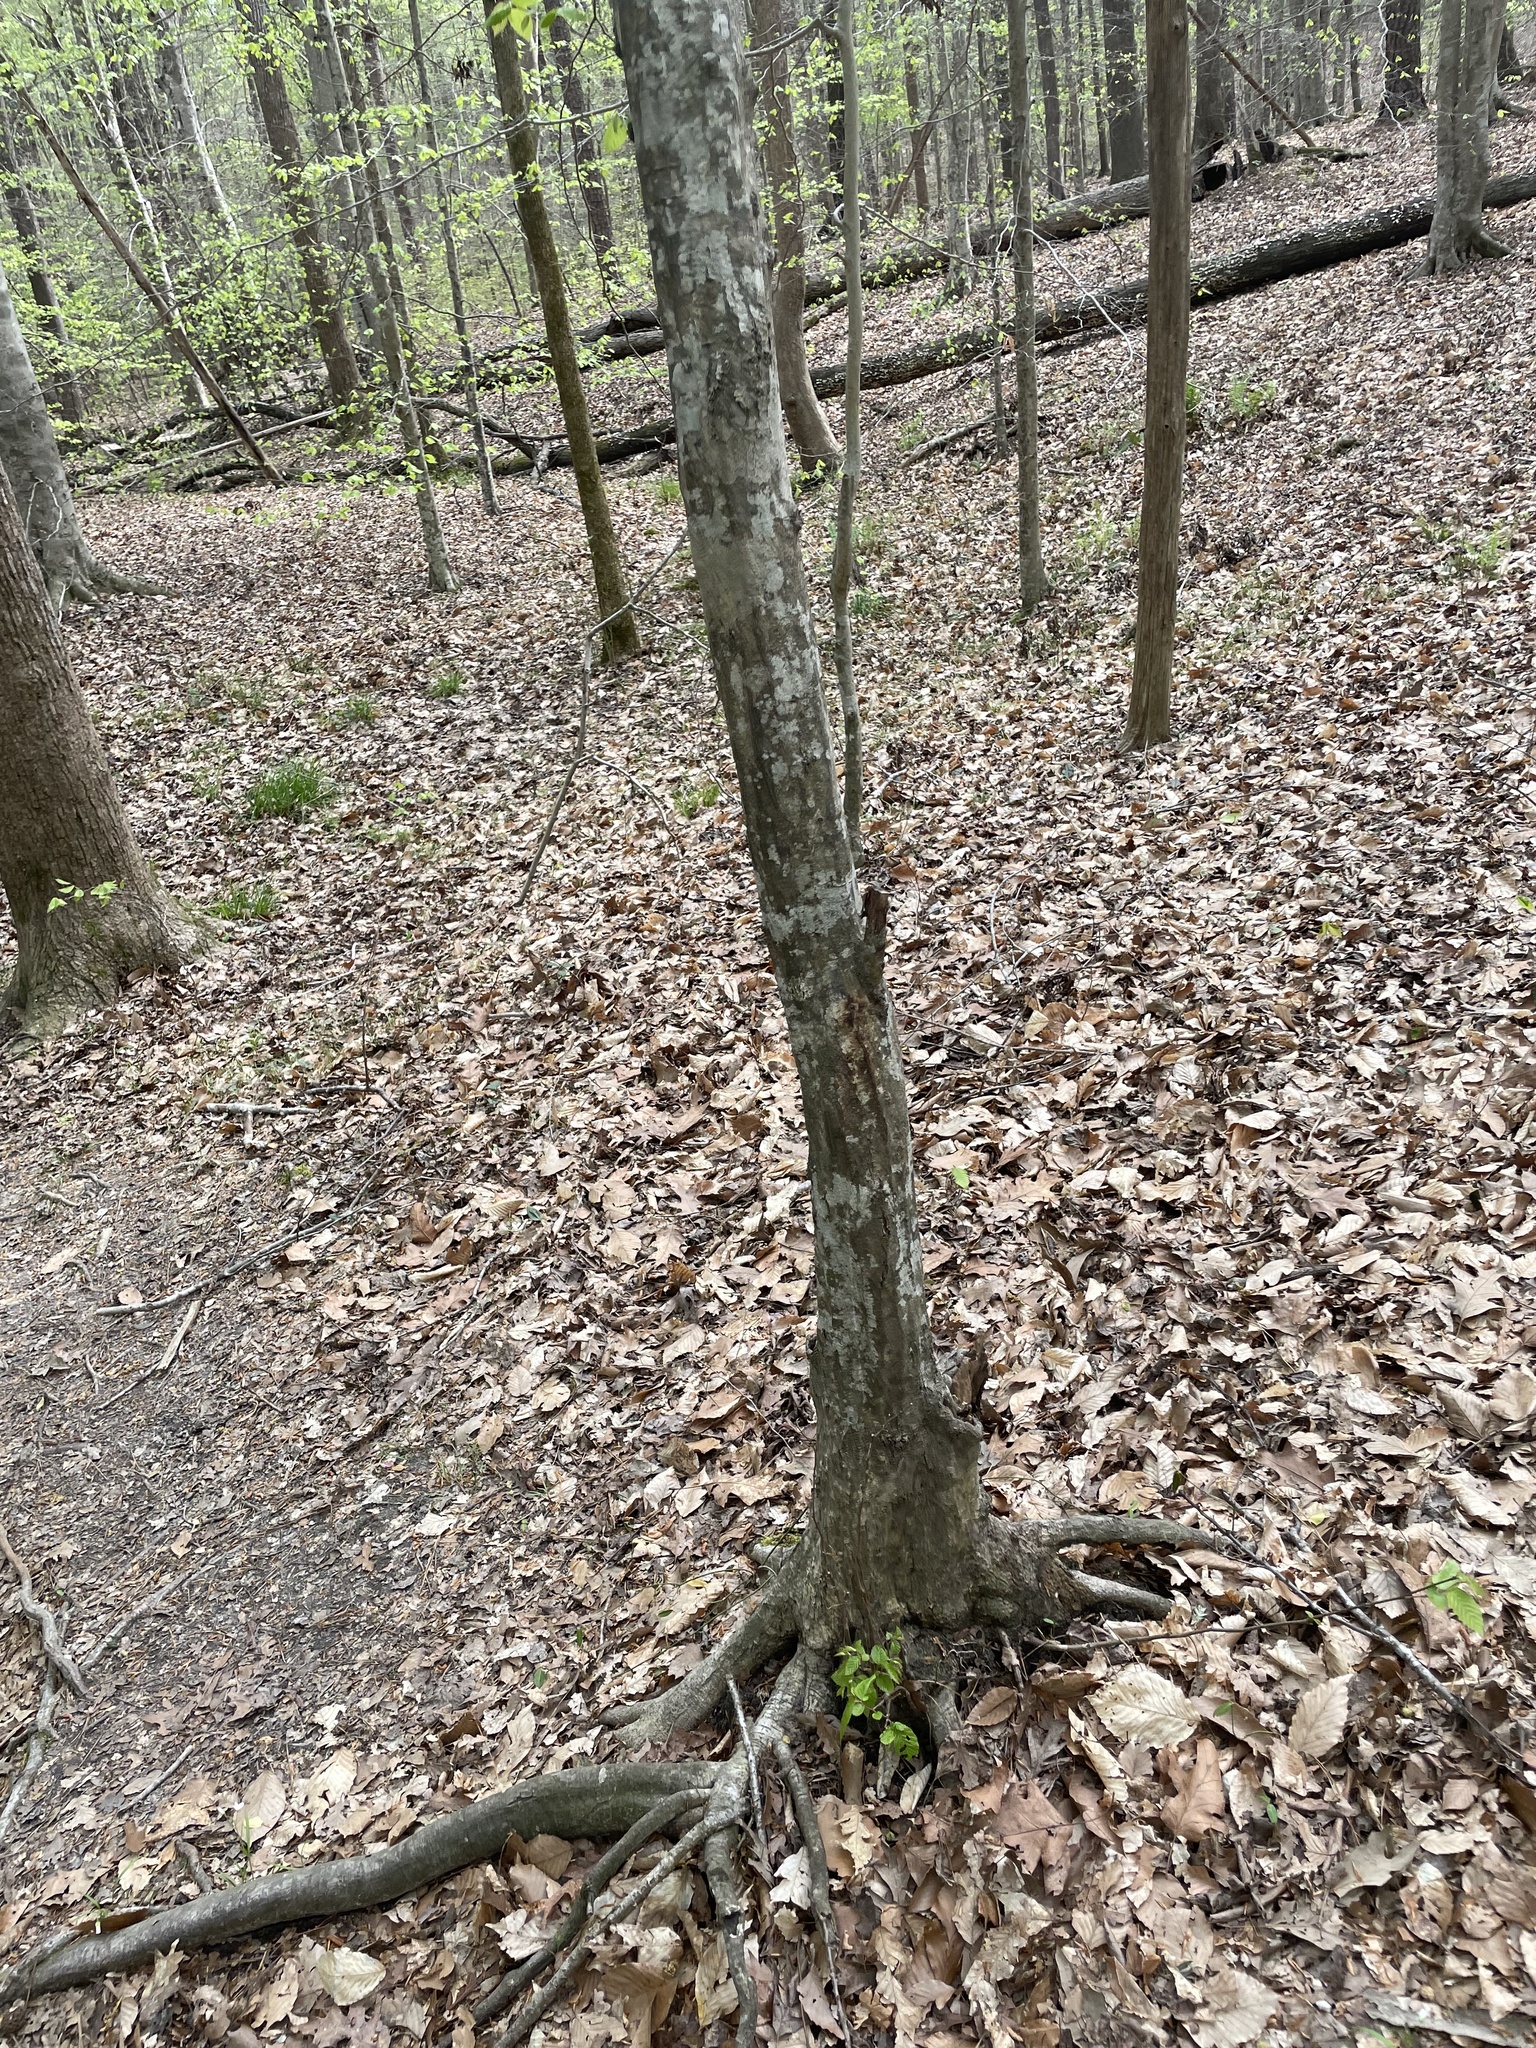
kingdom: Plantae
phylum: Tracheophyta
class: Magnoliopsida
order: Fagales
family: Betulaceae
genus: Carpinus
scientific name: Carpinus caroliniana
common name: American hornbeam
